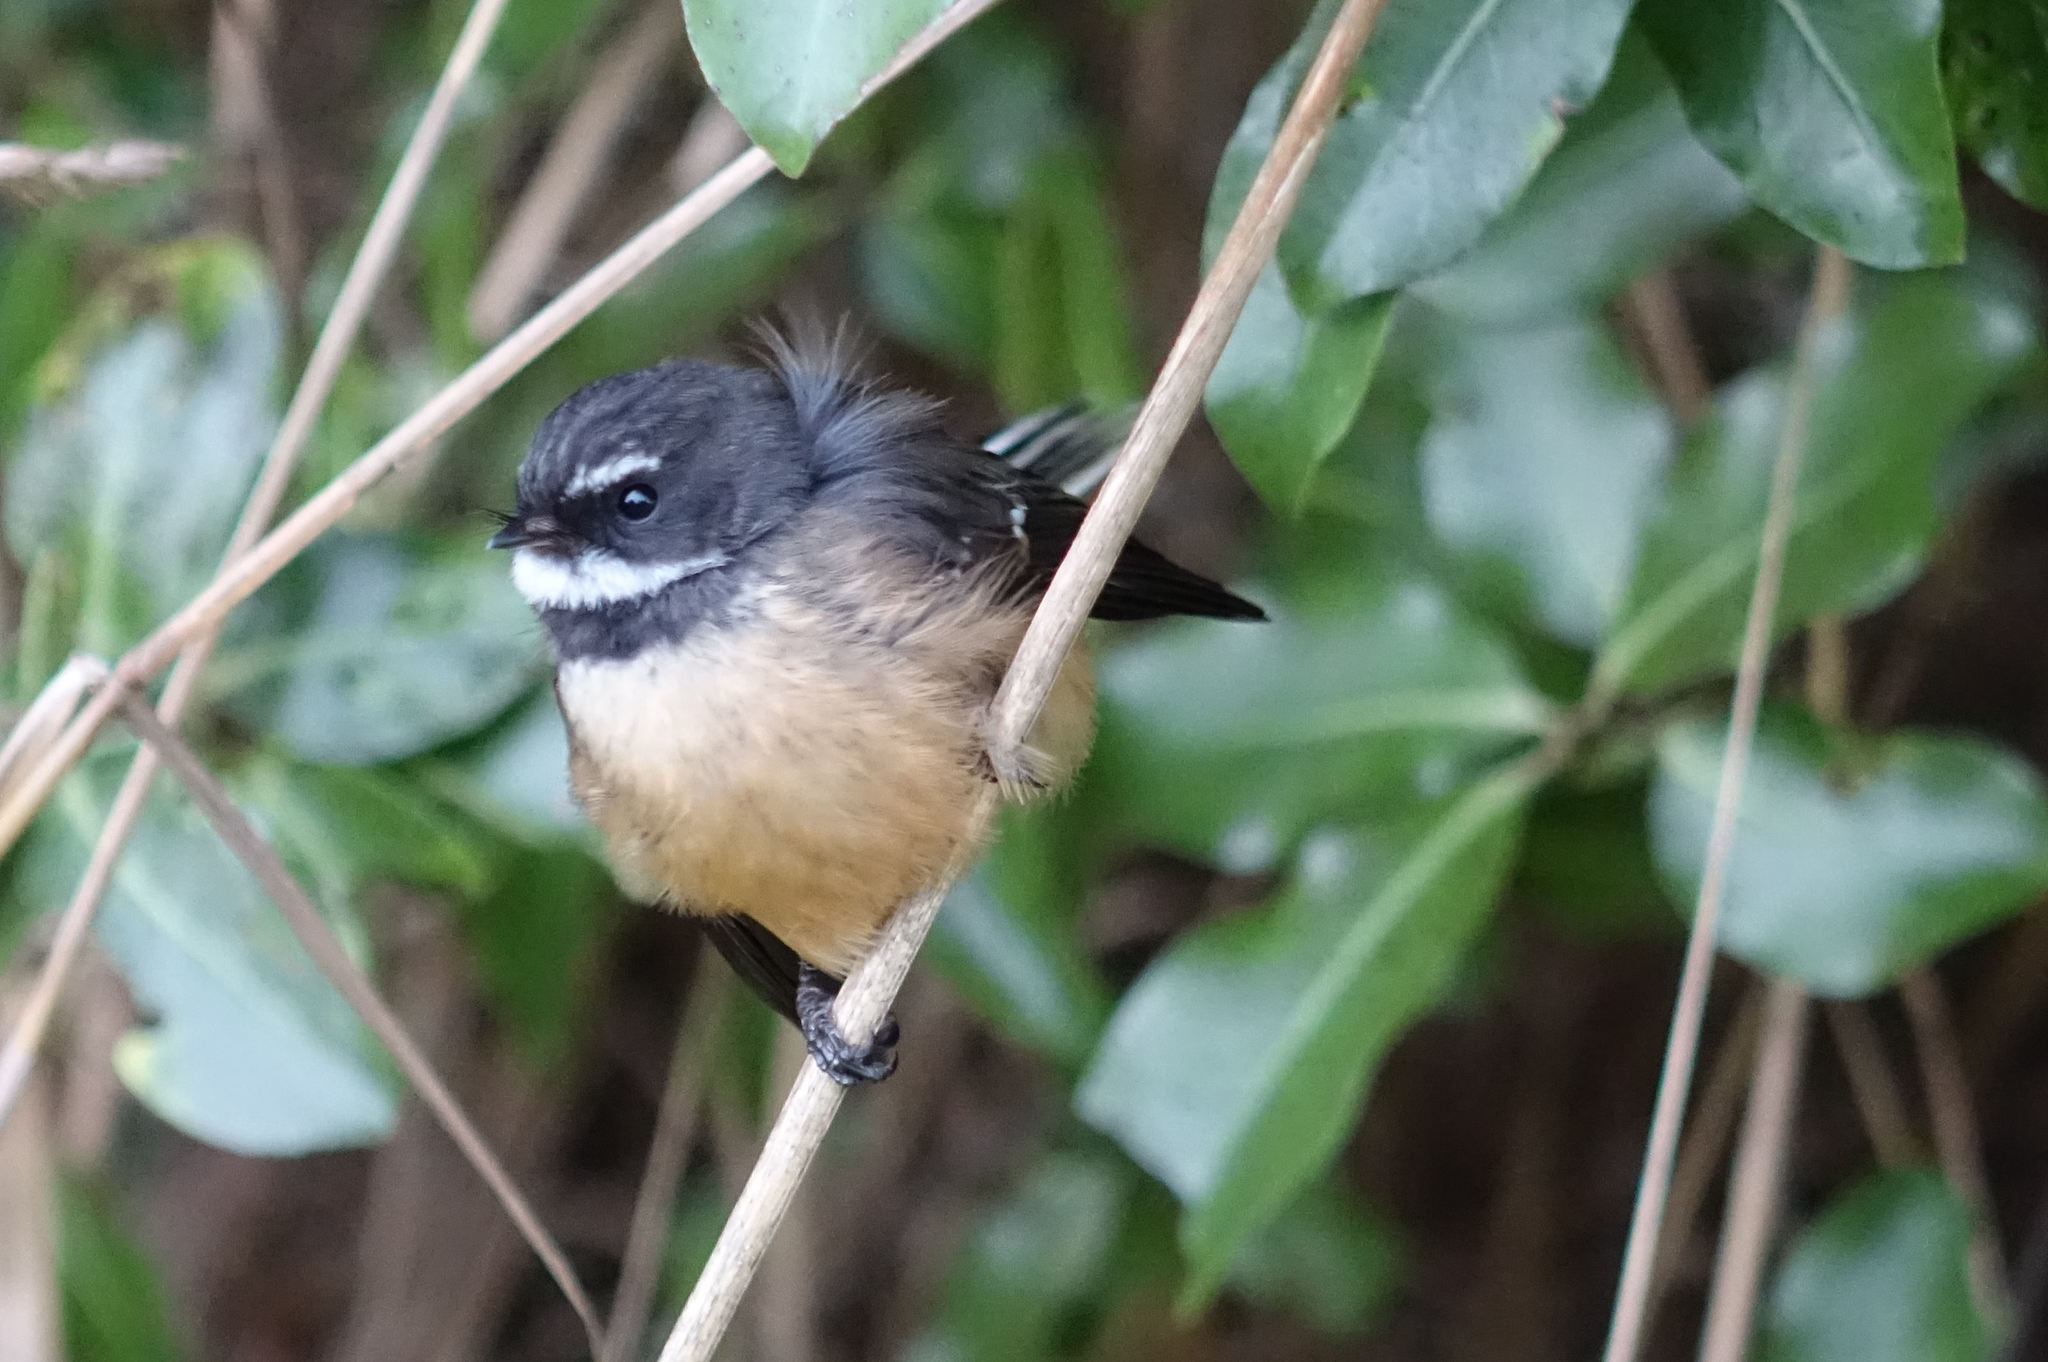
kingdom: Animalia
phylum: Chordata
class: Aves
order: Passeriformes
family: Rhipiduridae
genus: Rhipidura
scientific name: Rhipidura fuliginosa
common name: New zealand fantail
